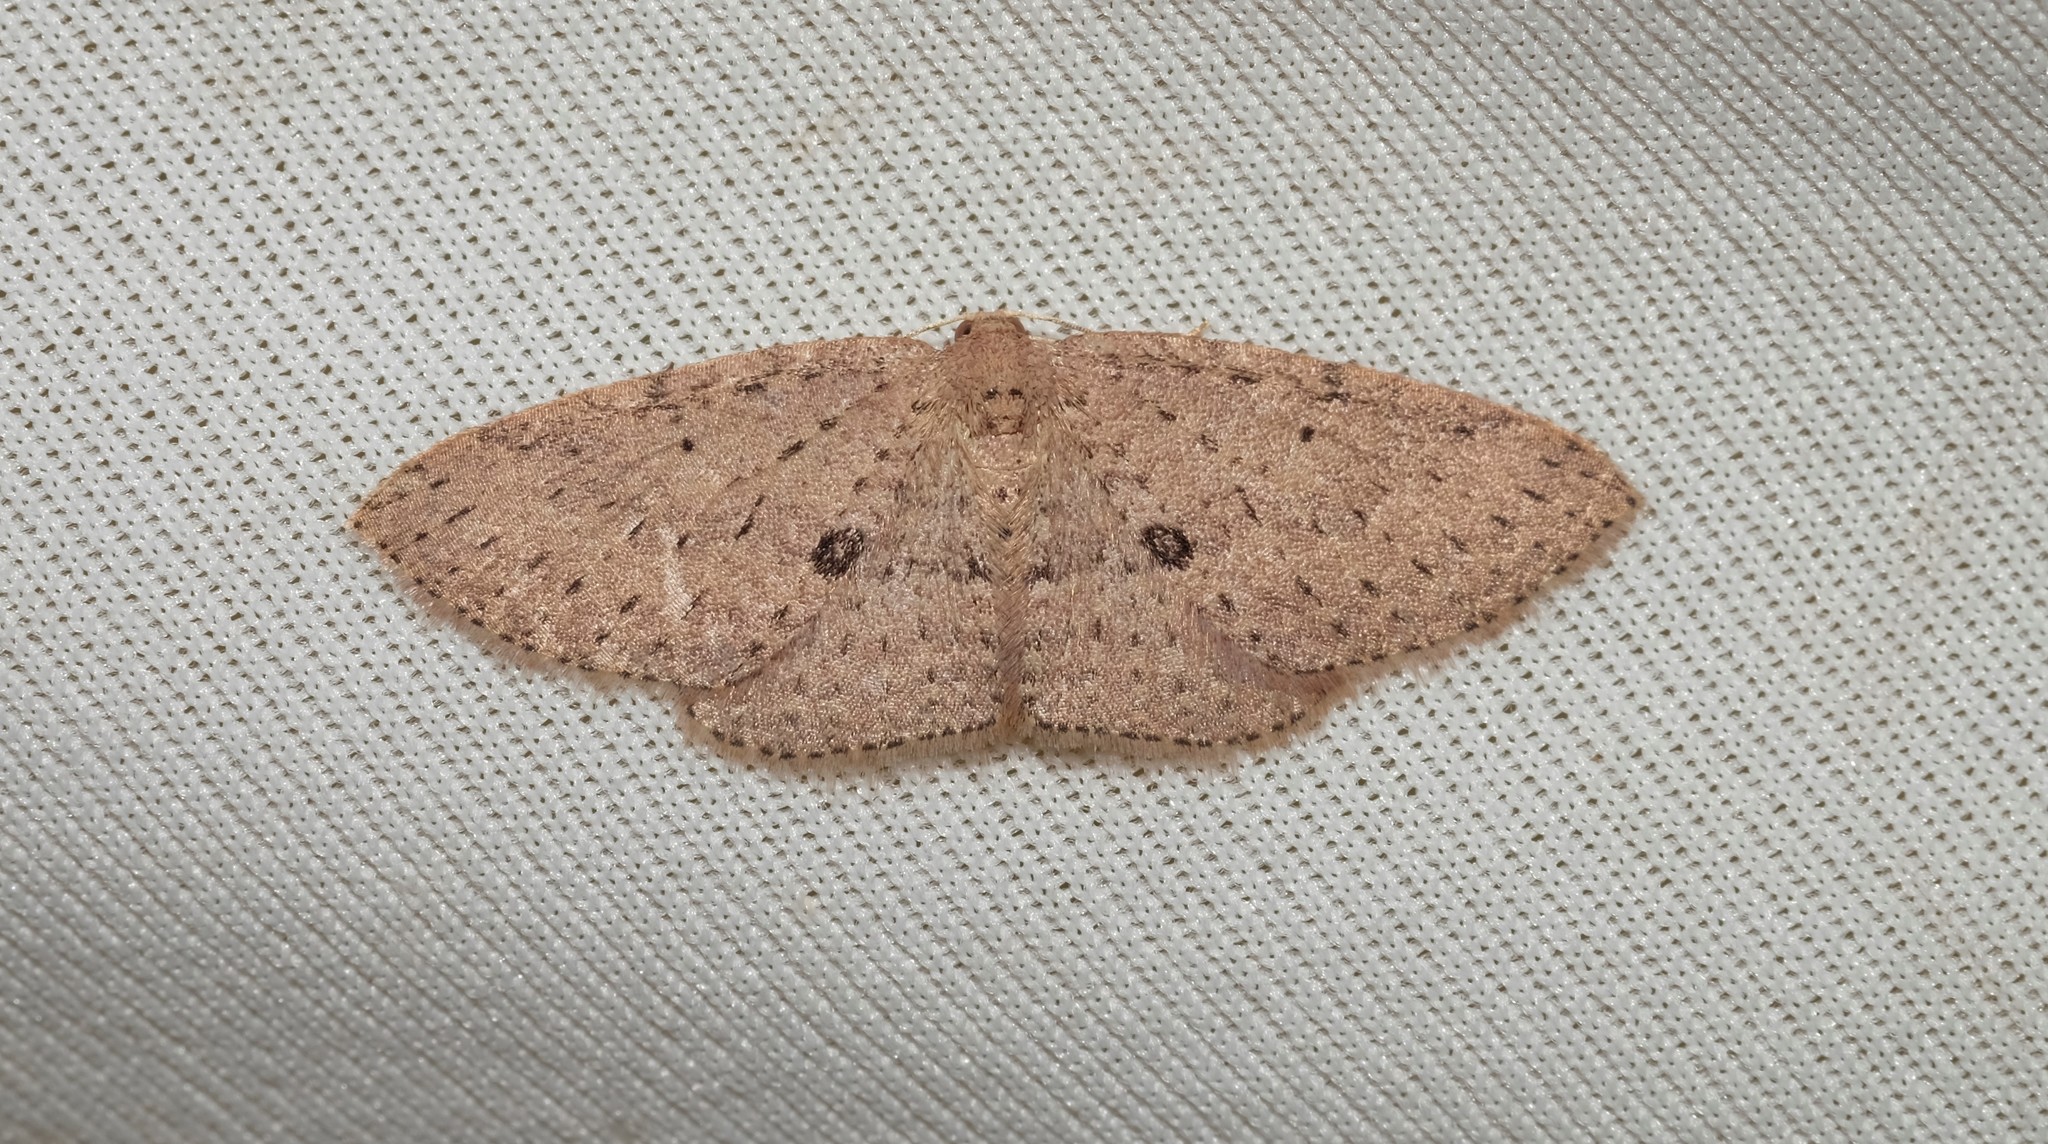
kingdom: Animalia
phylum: Arthropoda
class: Insecta
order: Lepidoptera
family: Geometridae
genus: Poecilasthena
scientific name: Poecilasthena anthodes
